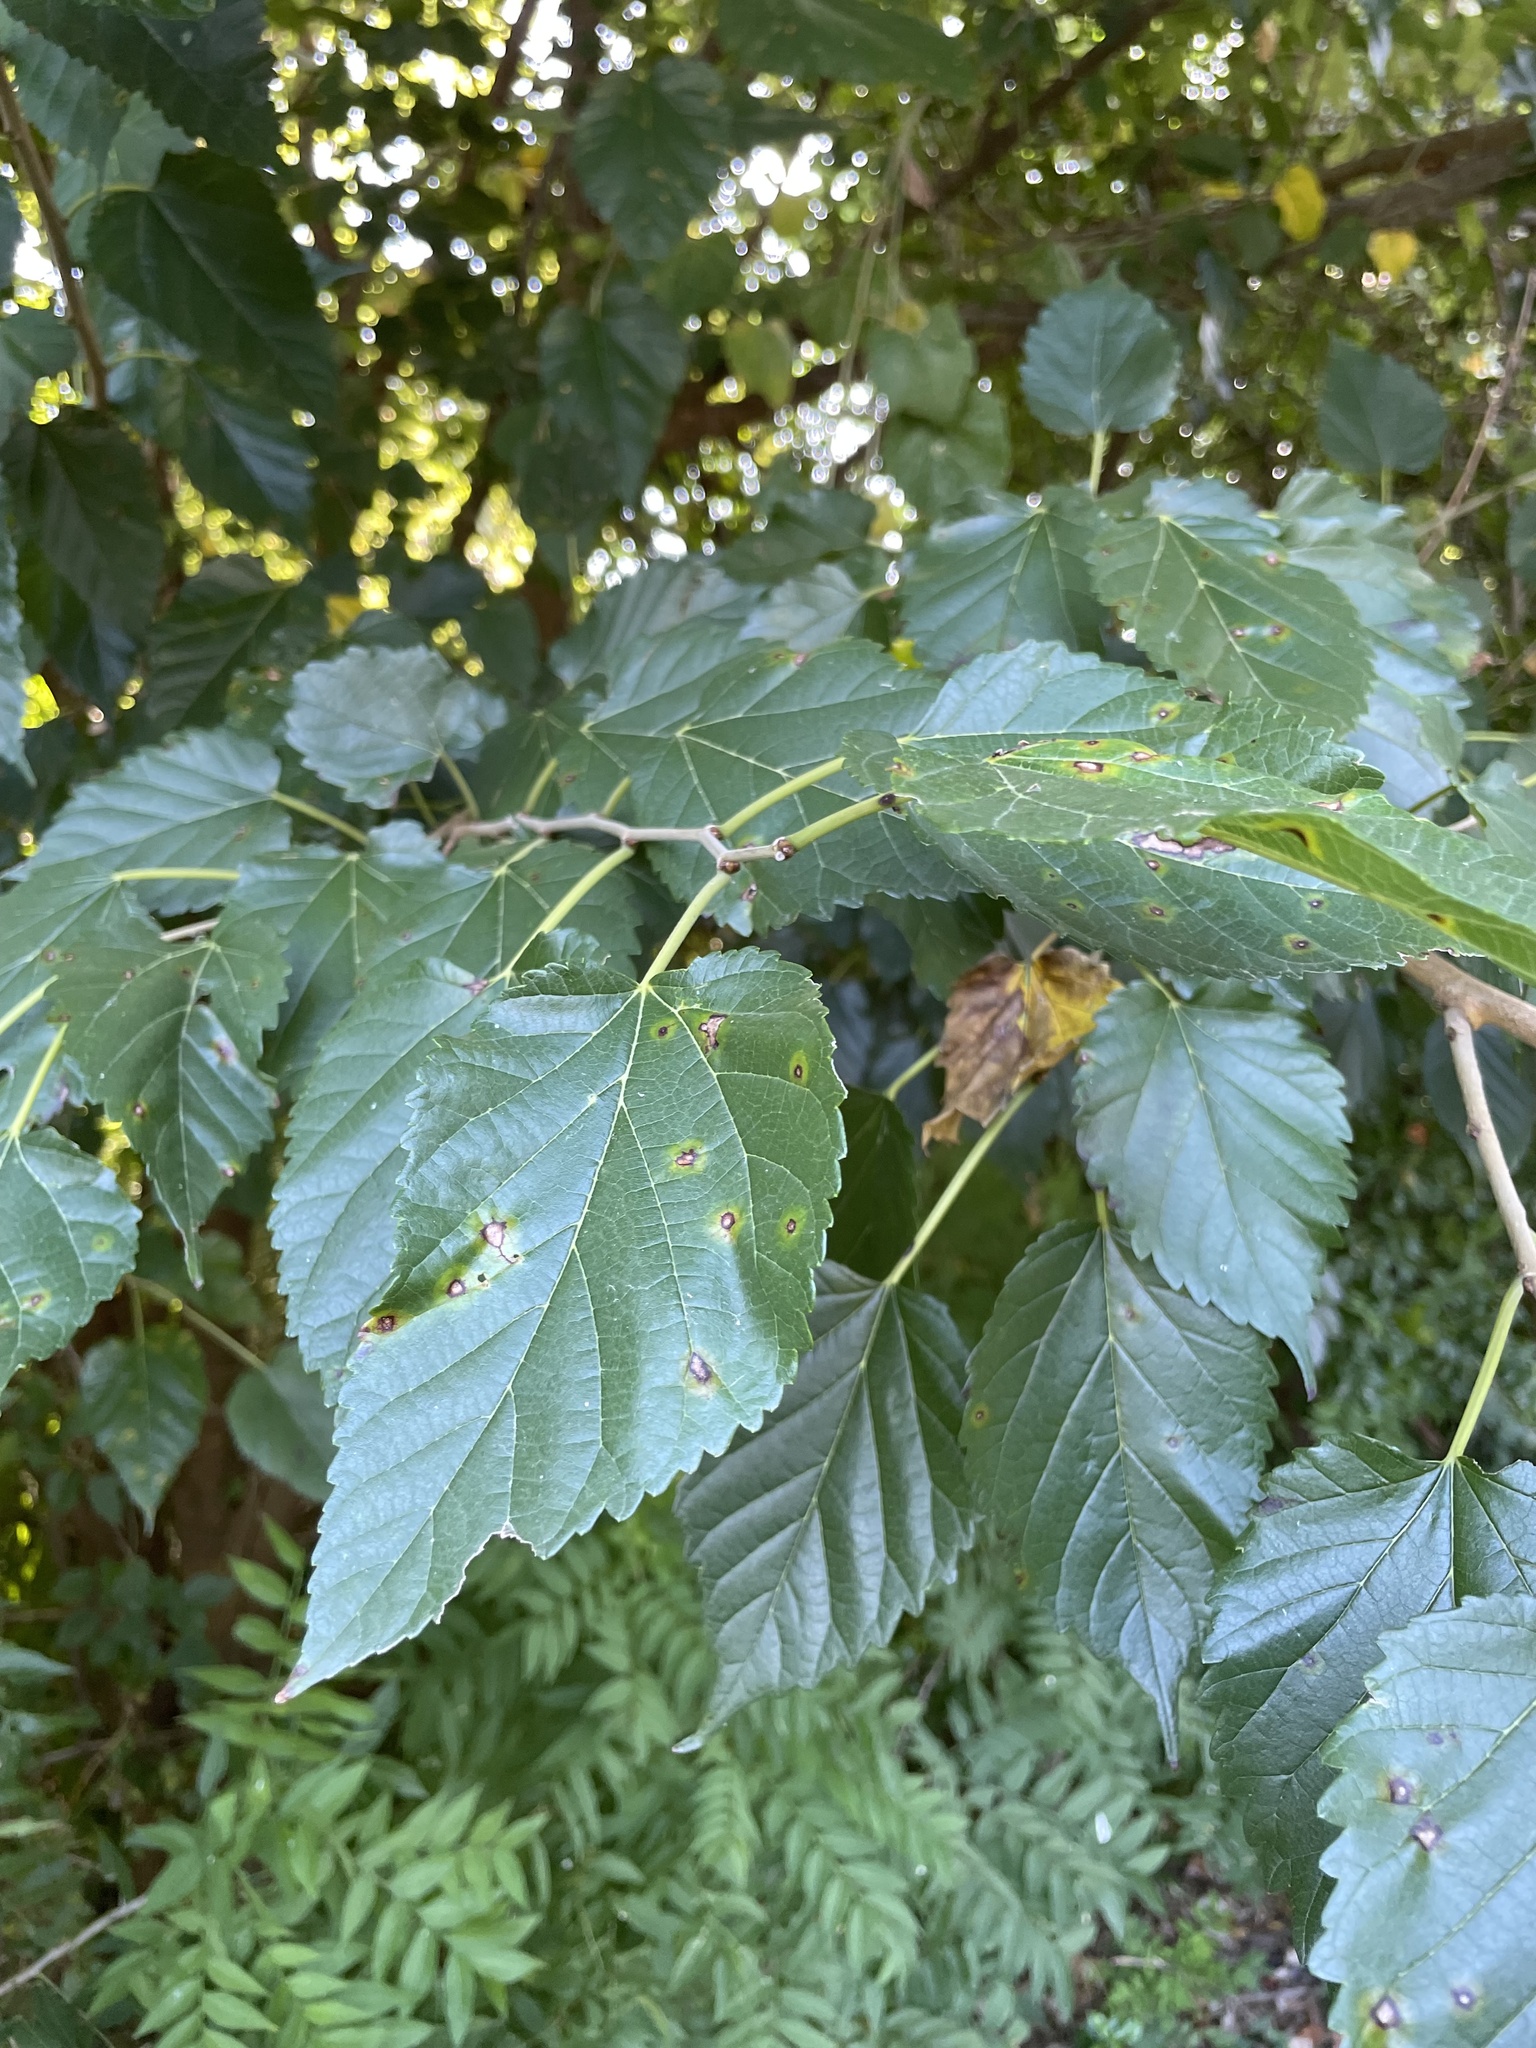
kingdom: Plantae
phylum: Tracheophyta
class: Magnoliopsida
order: Rosales
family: Moraceae
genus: Morus
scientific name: Morus alba
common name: White mulberry
